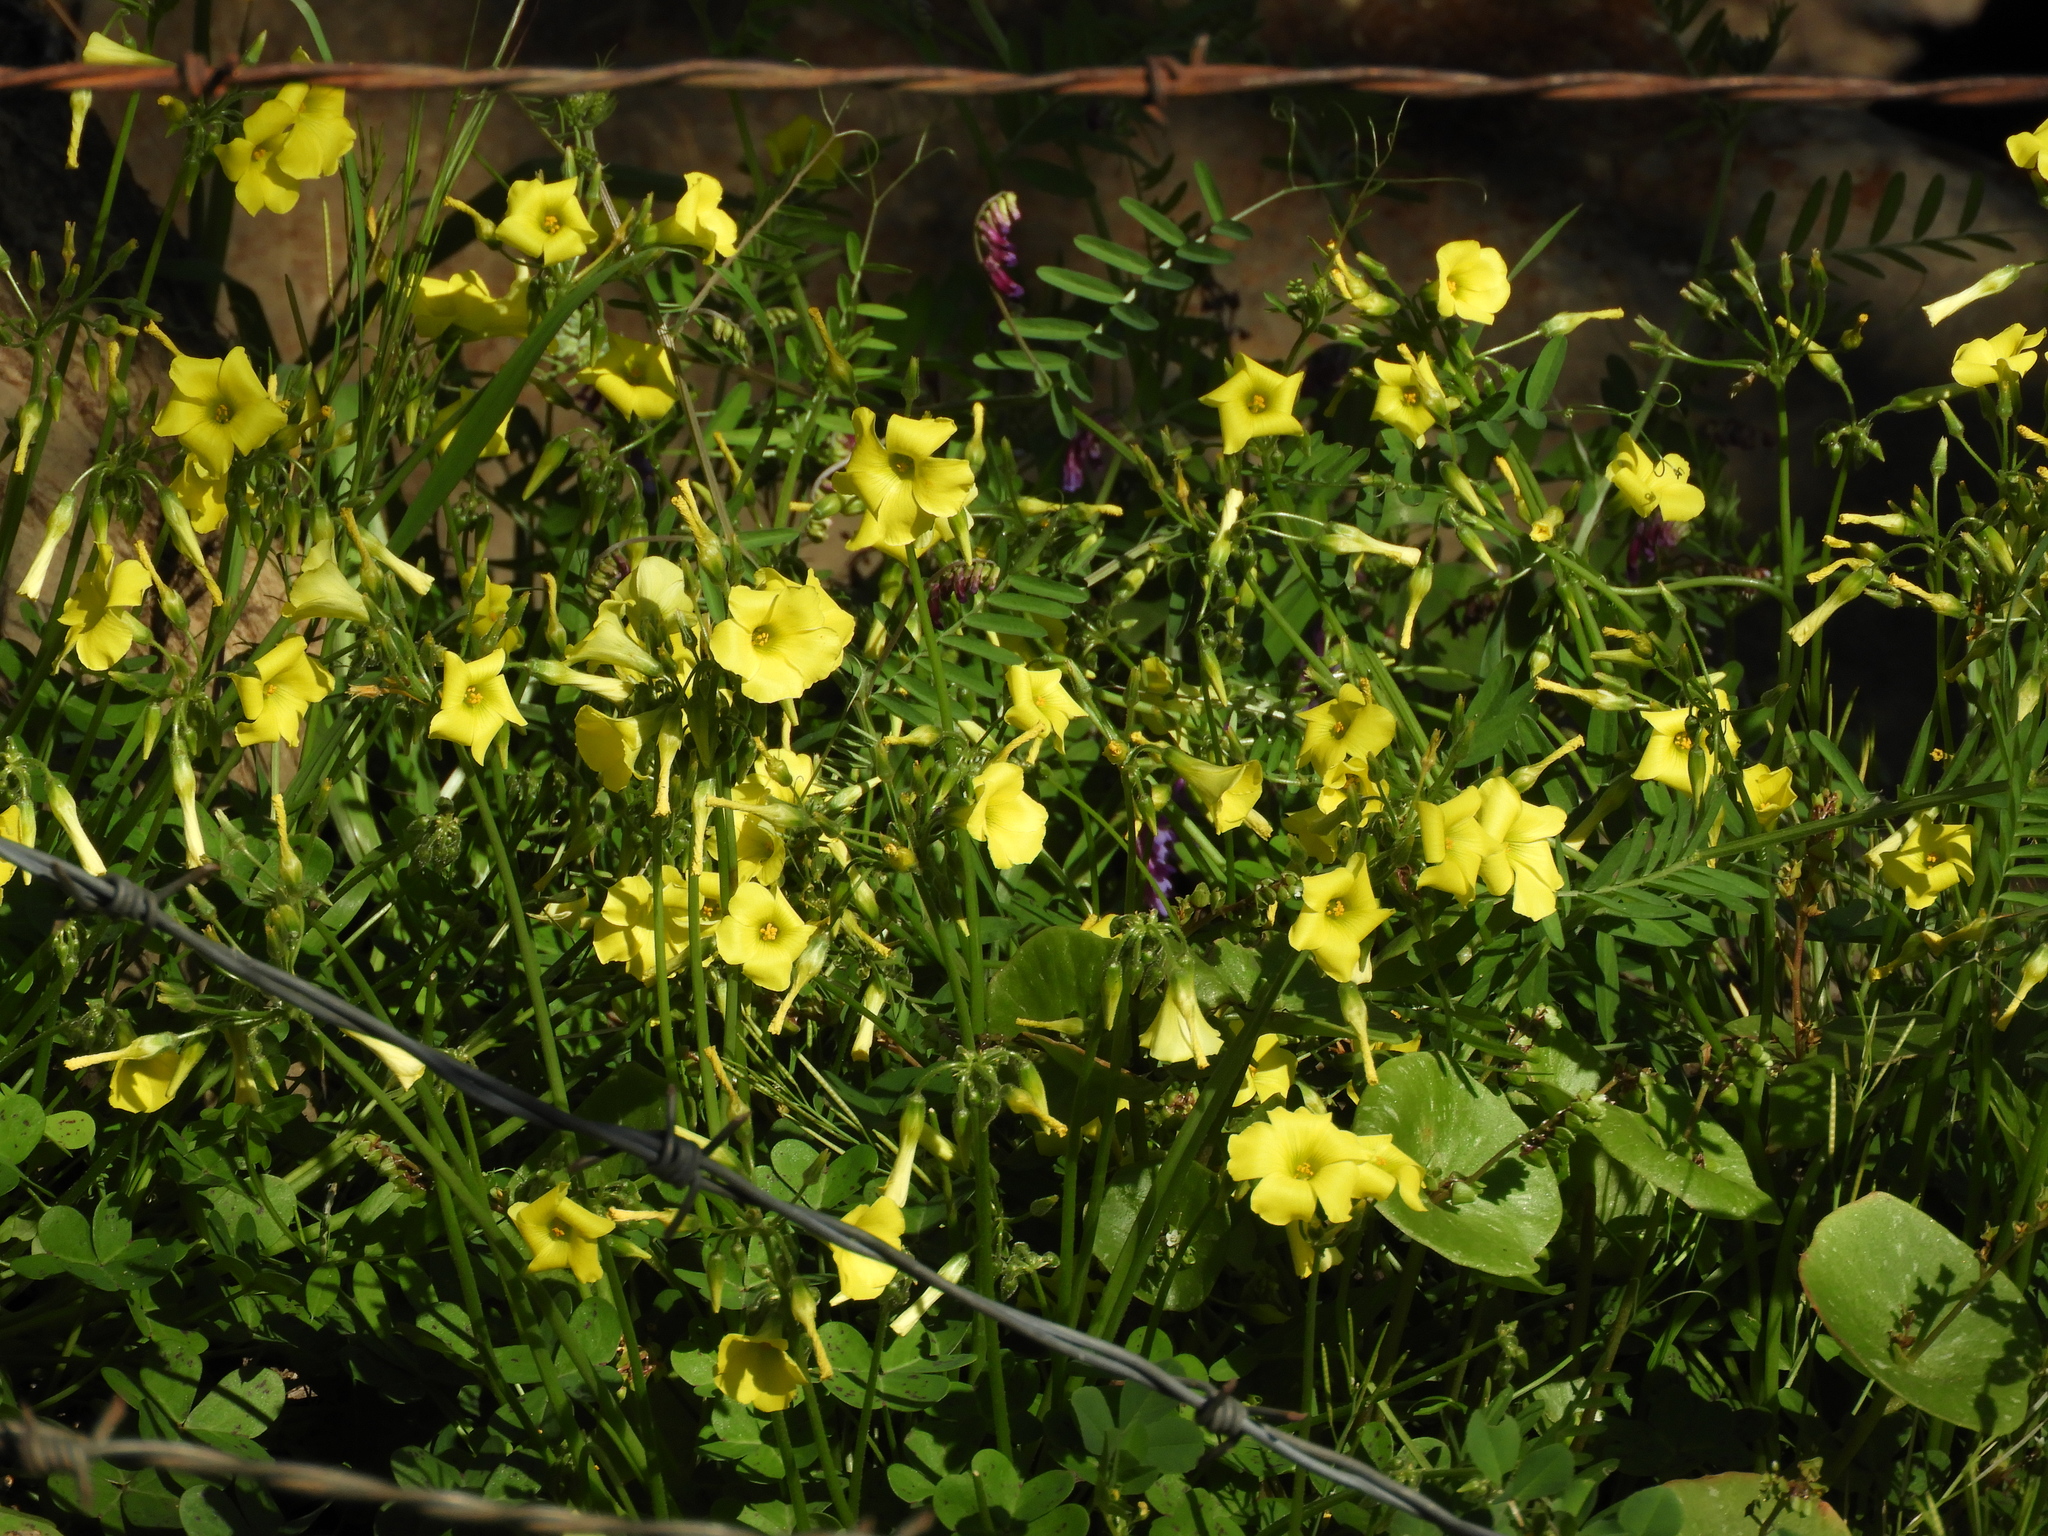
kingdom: Plantae
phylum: Tracheophyta
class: Magnoliopsida
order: Oxalidales
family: Oxalidaceae
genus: Oxalis
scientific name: Oxalis pes-caprae
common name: Bermuda-buttercup
